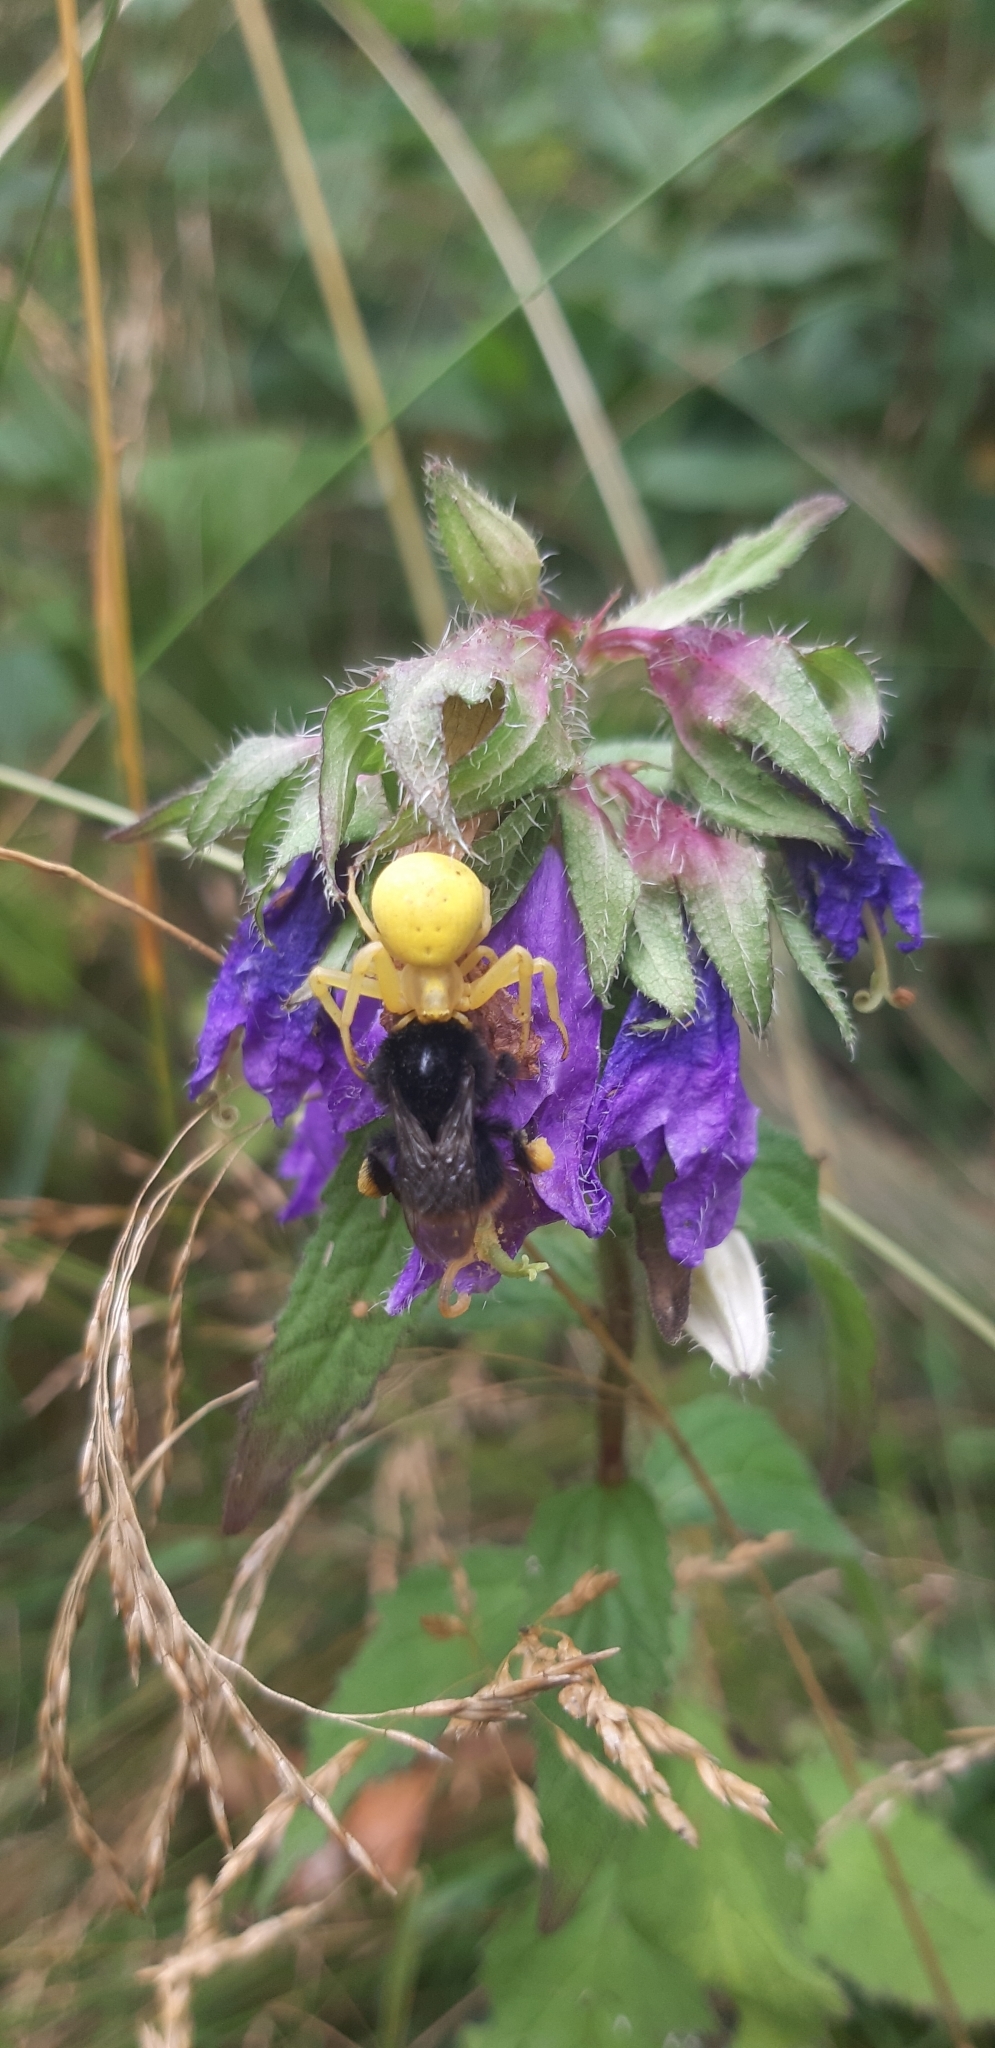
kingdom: Animalia
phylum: Arthropoda
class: Arachnida
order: Araneae
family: Thomisidae
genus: Misumena
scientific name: Misumena vatia
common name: Goldenrod crab spider
